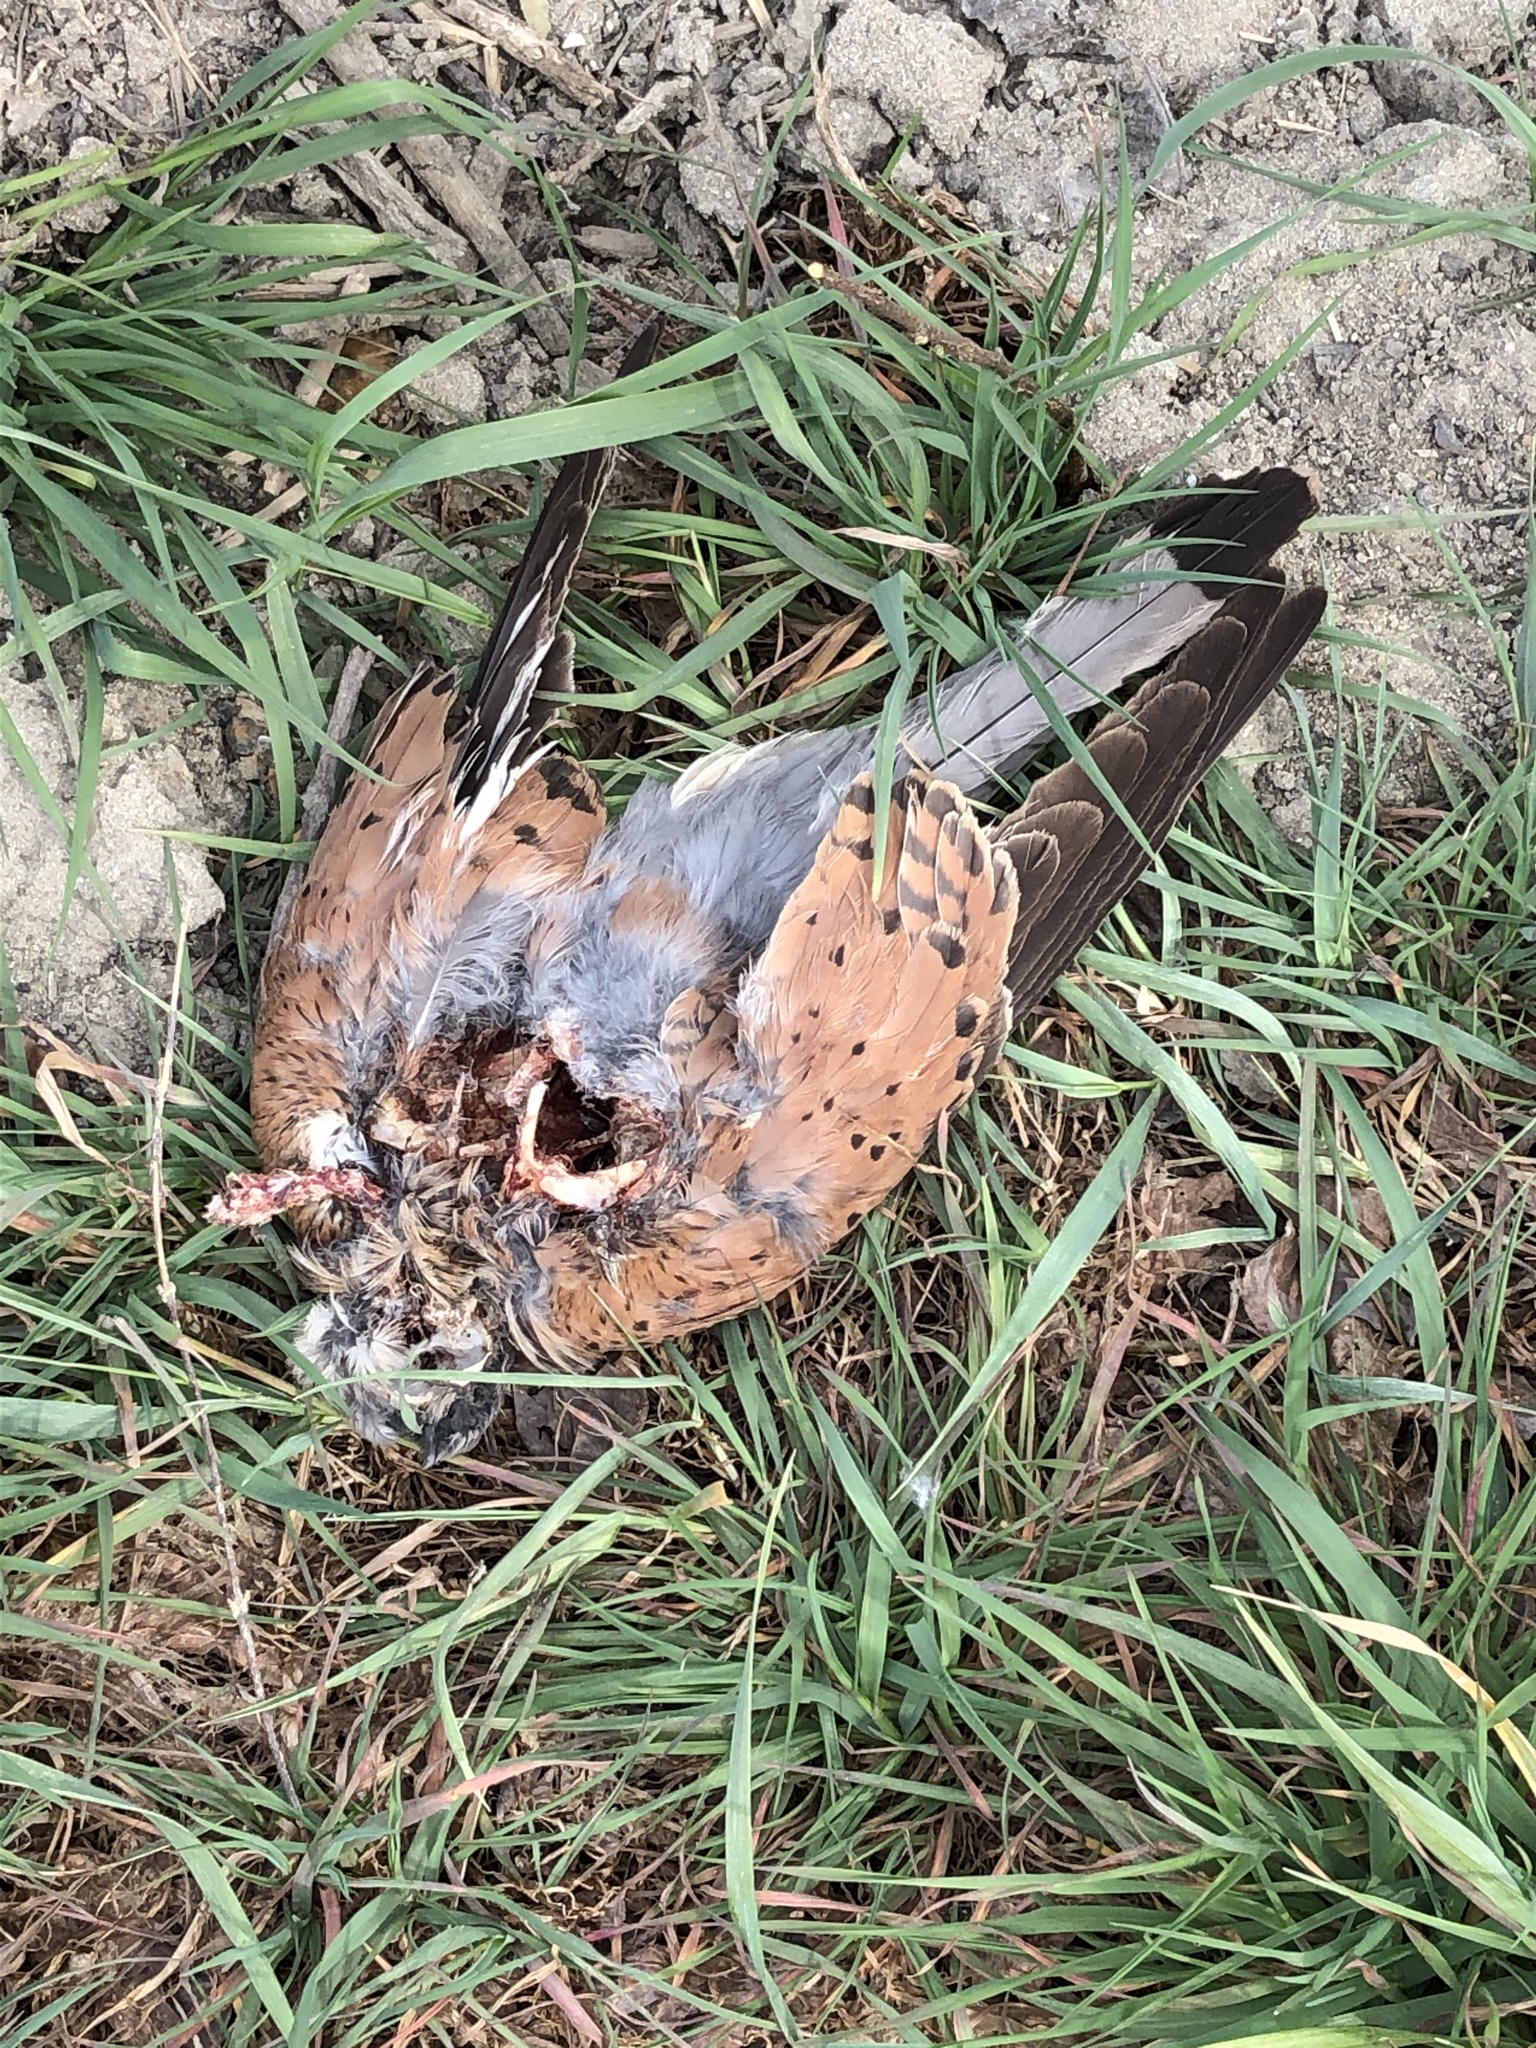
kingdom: Animalia
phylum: Chordata
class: Aves
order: Falconiformes
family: Falconidae
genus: Falco
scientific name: Falco tinnunculus
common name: Common kestrel
